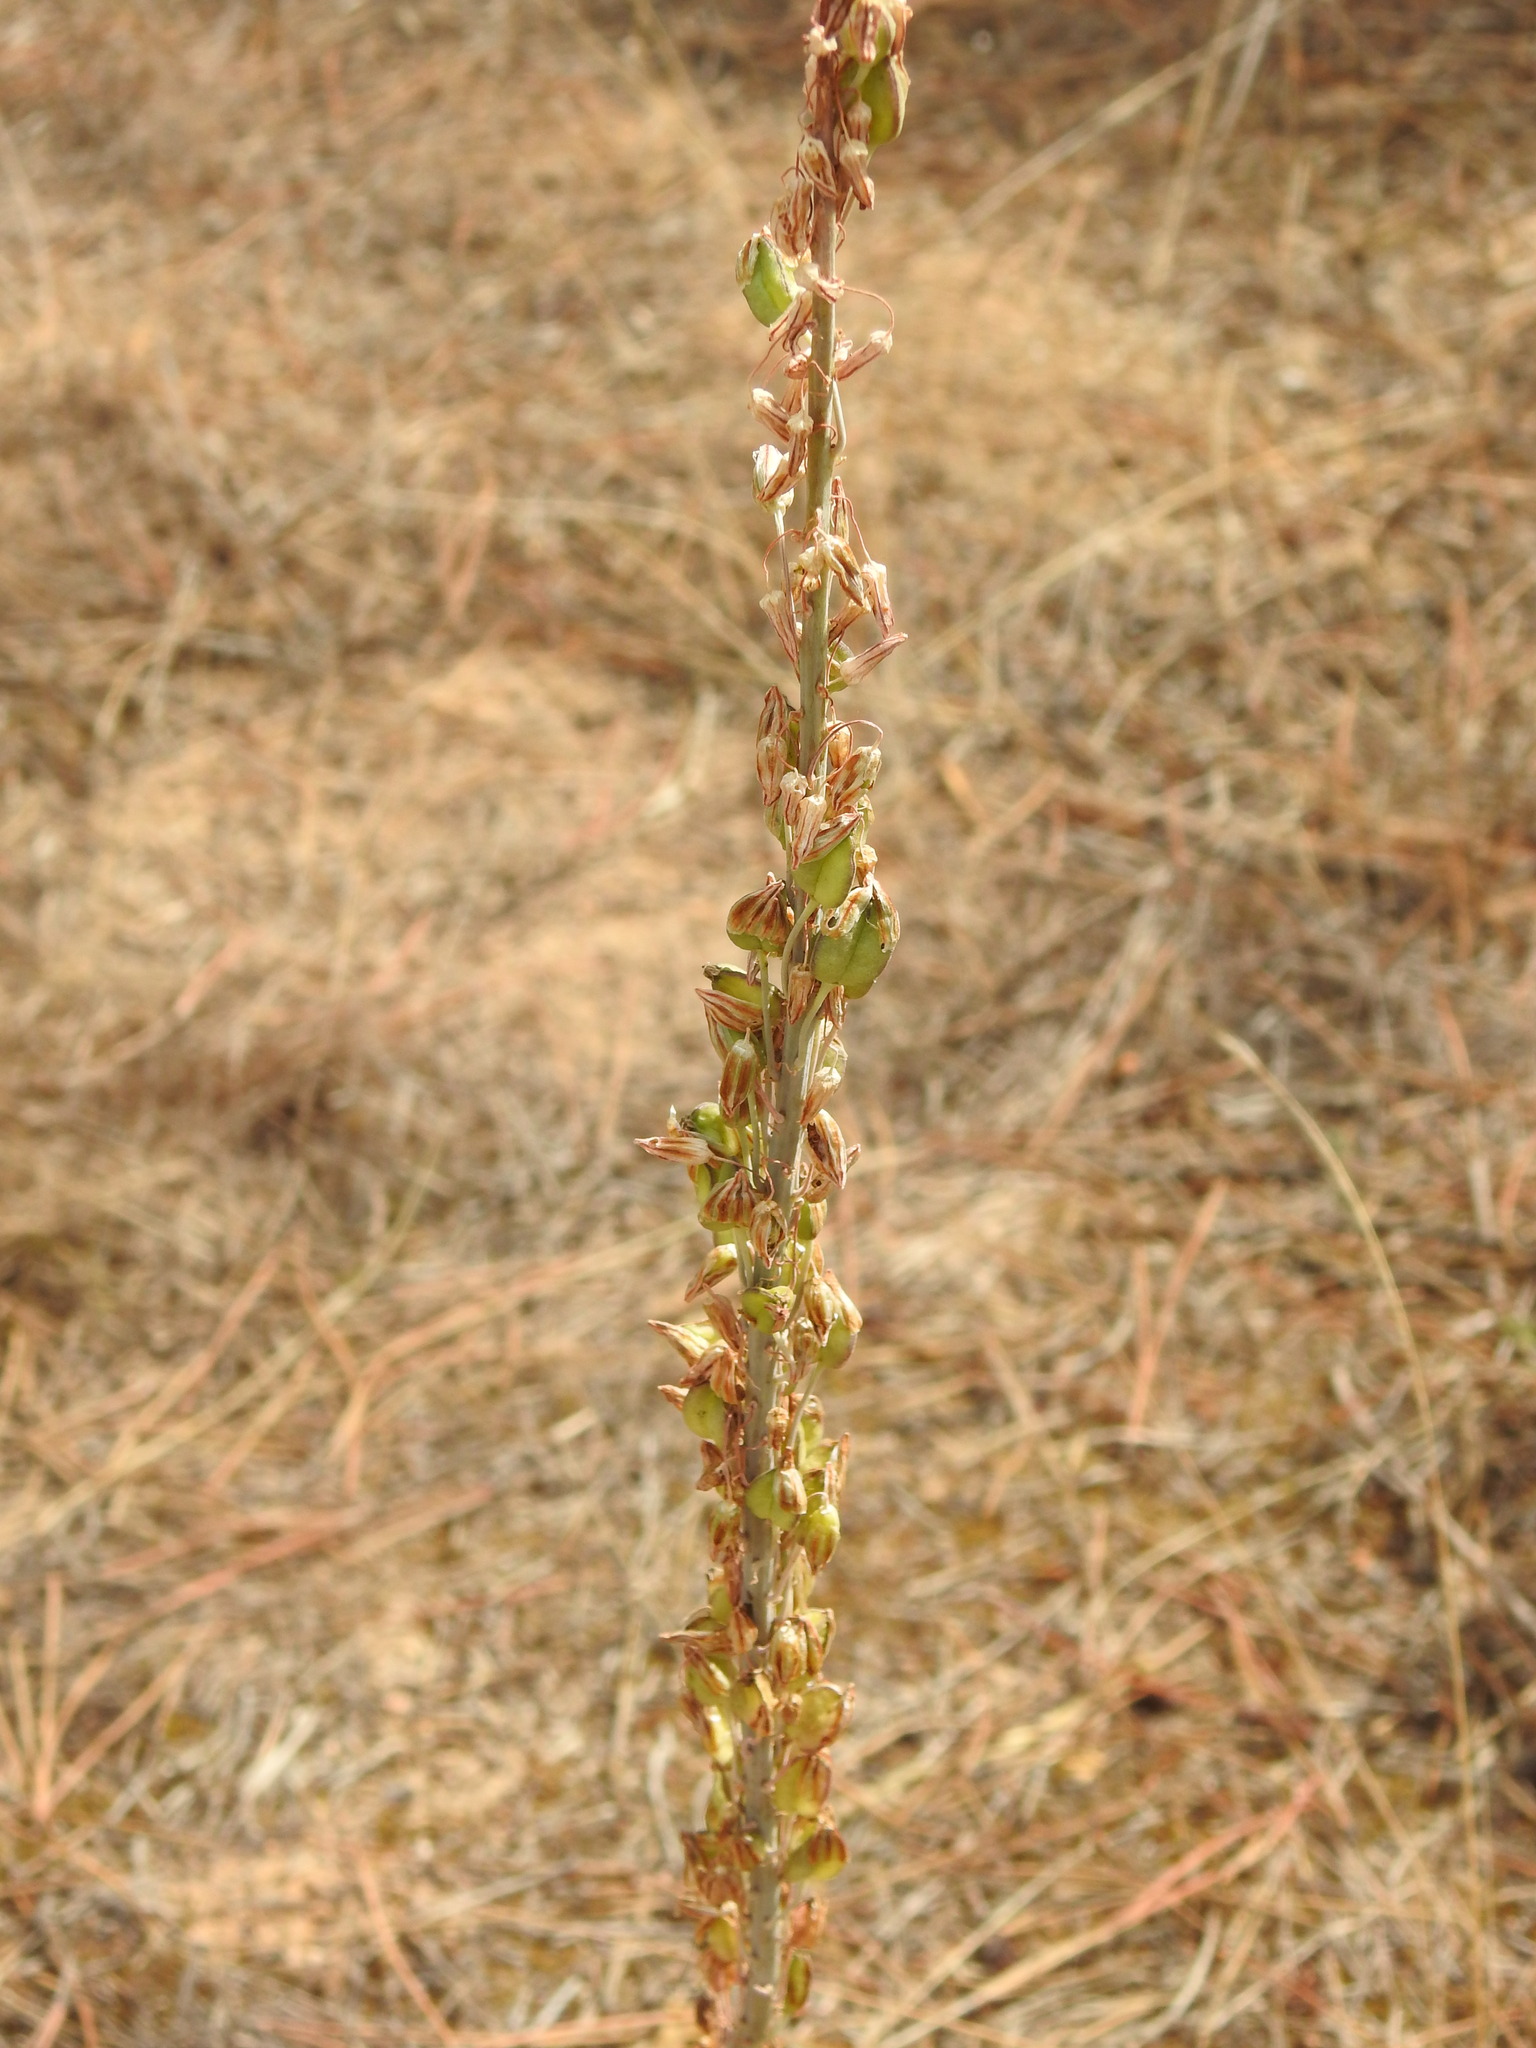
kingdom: Plantae
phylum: Tracheophyta
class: Liliopsida
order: Asparagales
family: Asparagaceae
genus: Drimia
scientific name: Drimia maritima
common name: Maritime squill
